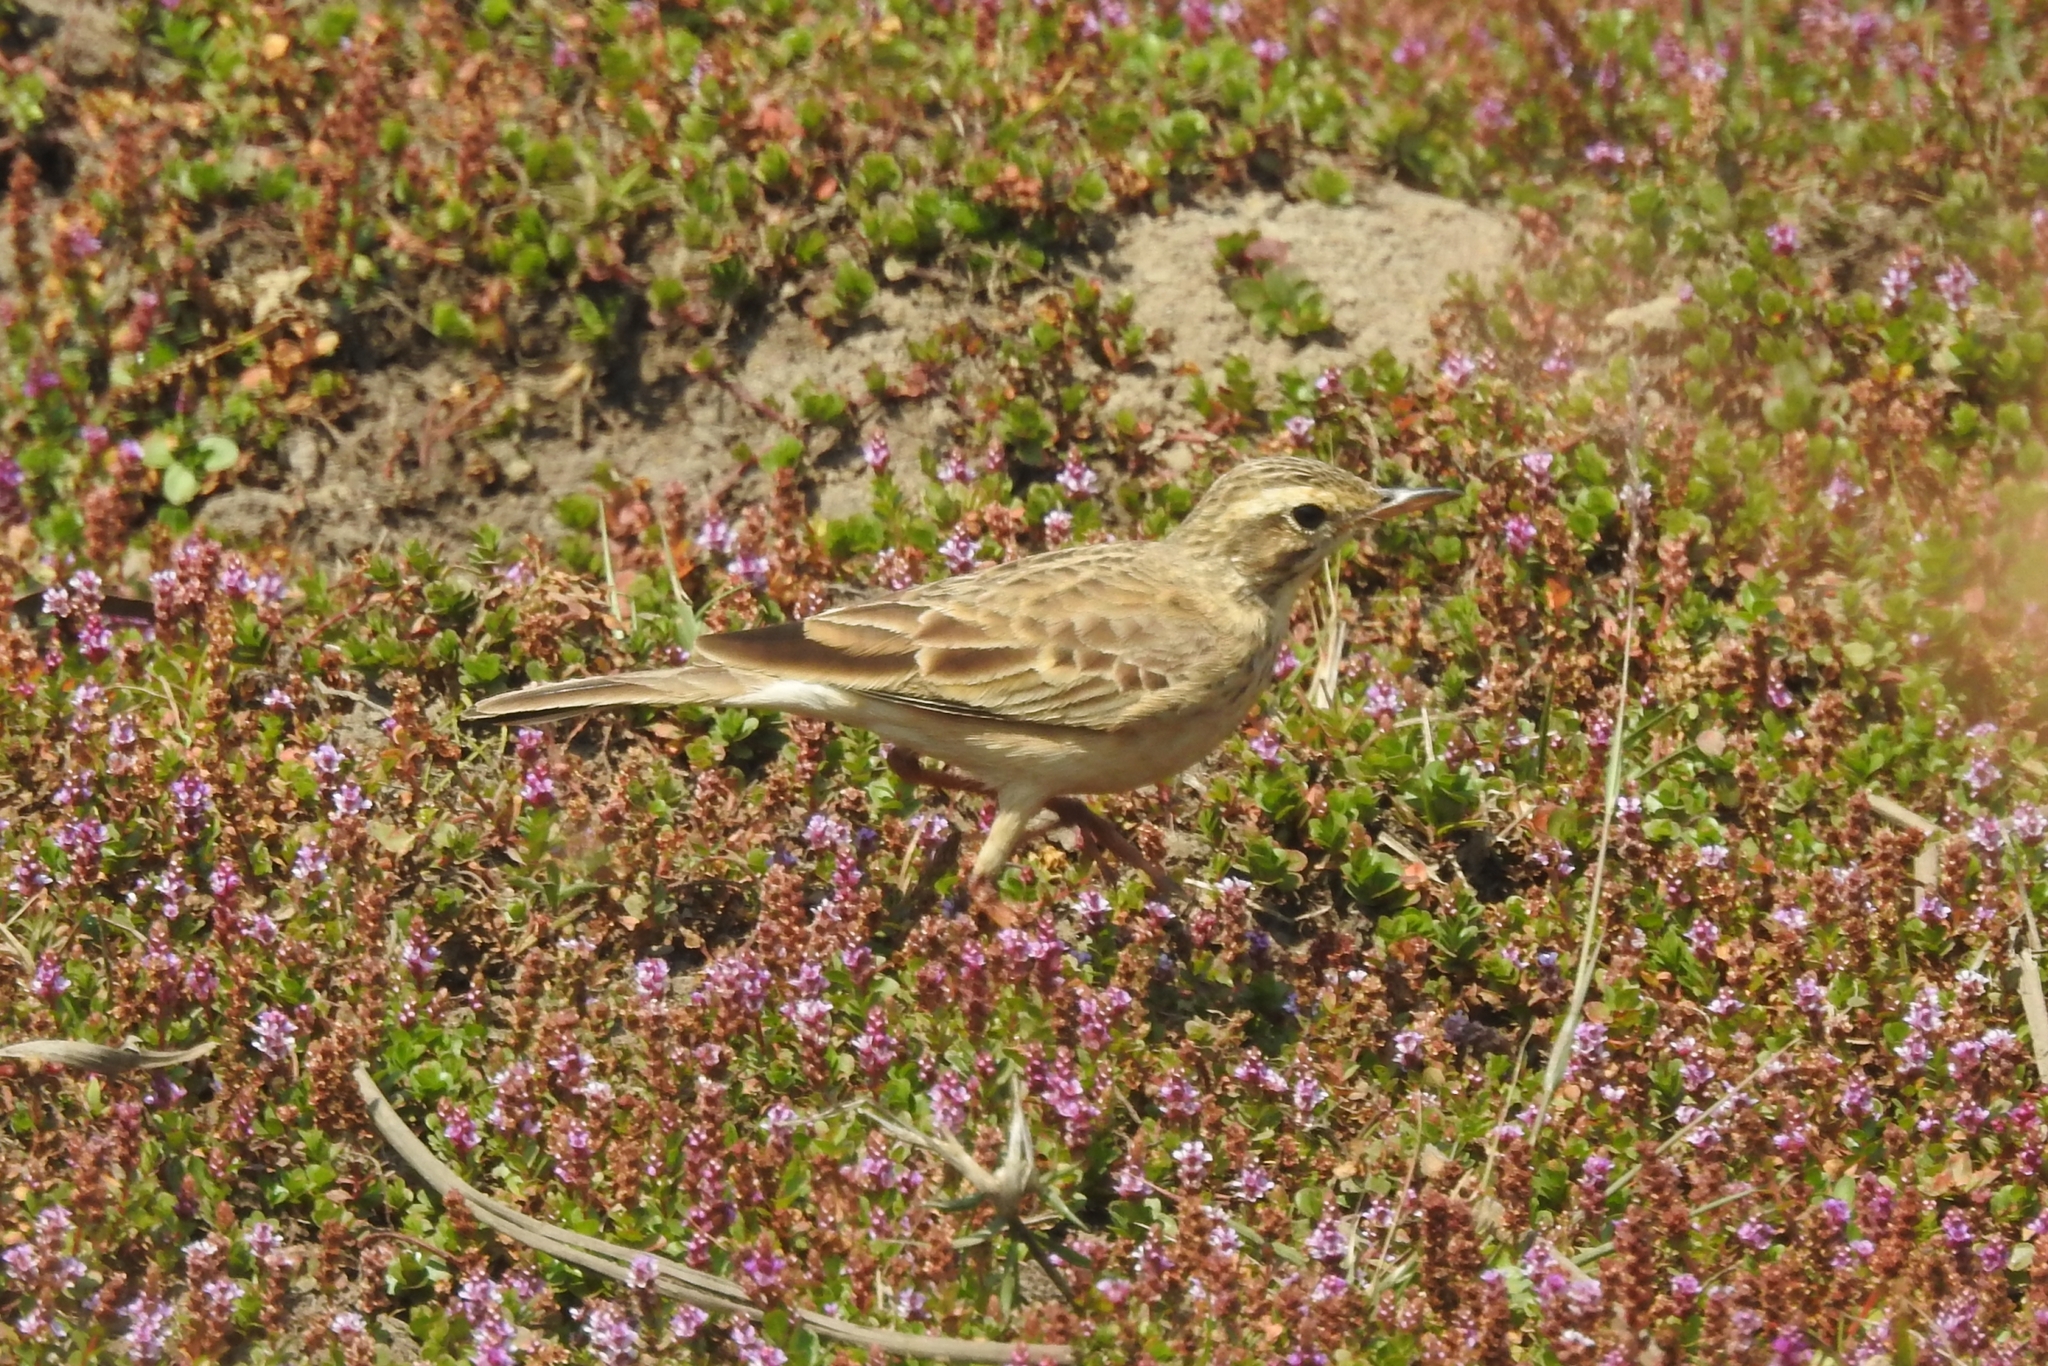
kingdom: Animalia
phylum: Chordata
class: Aves
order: Passeriformes
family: Motacillidae
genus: Anthus
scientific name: Anthus rufulus
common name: Paddyfield pipit
